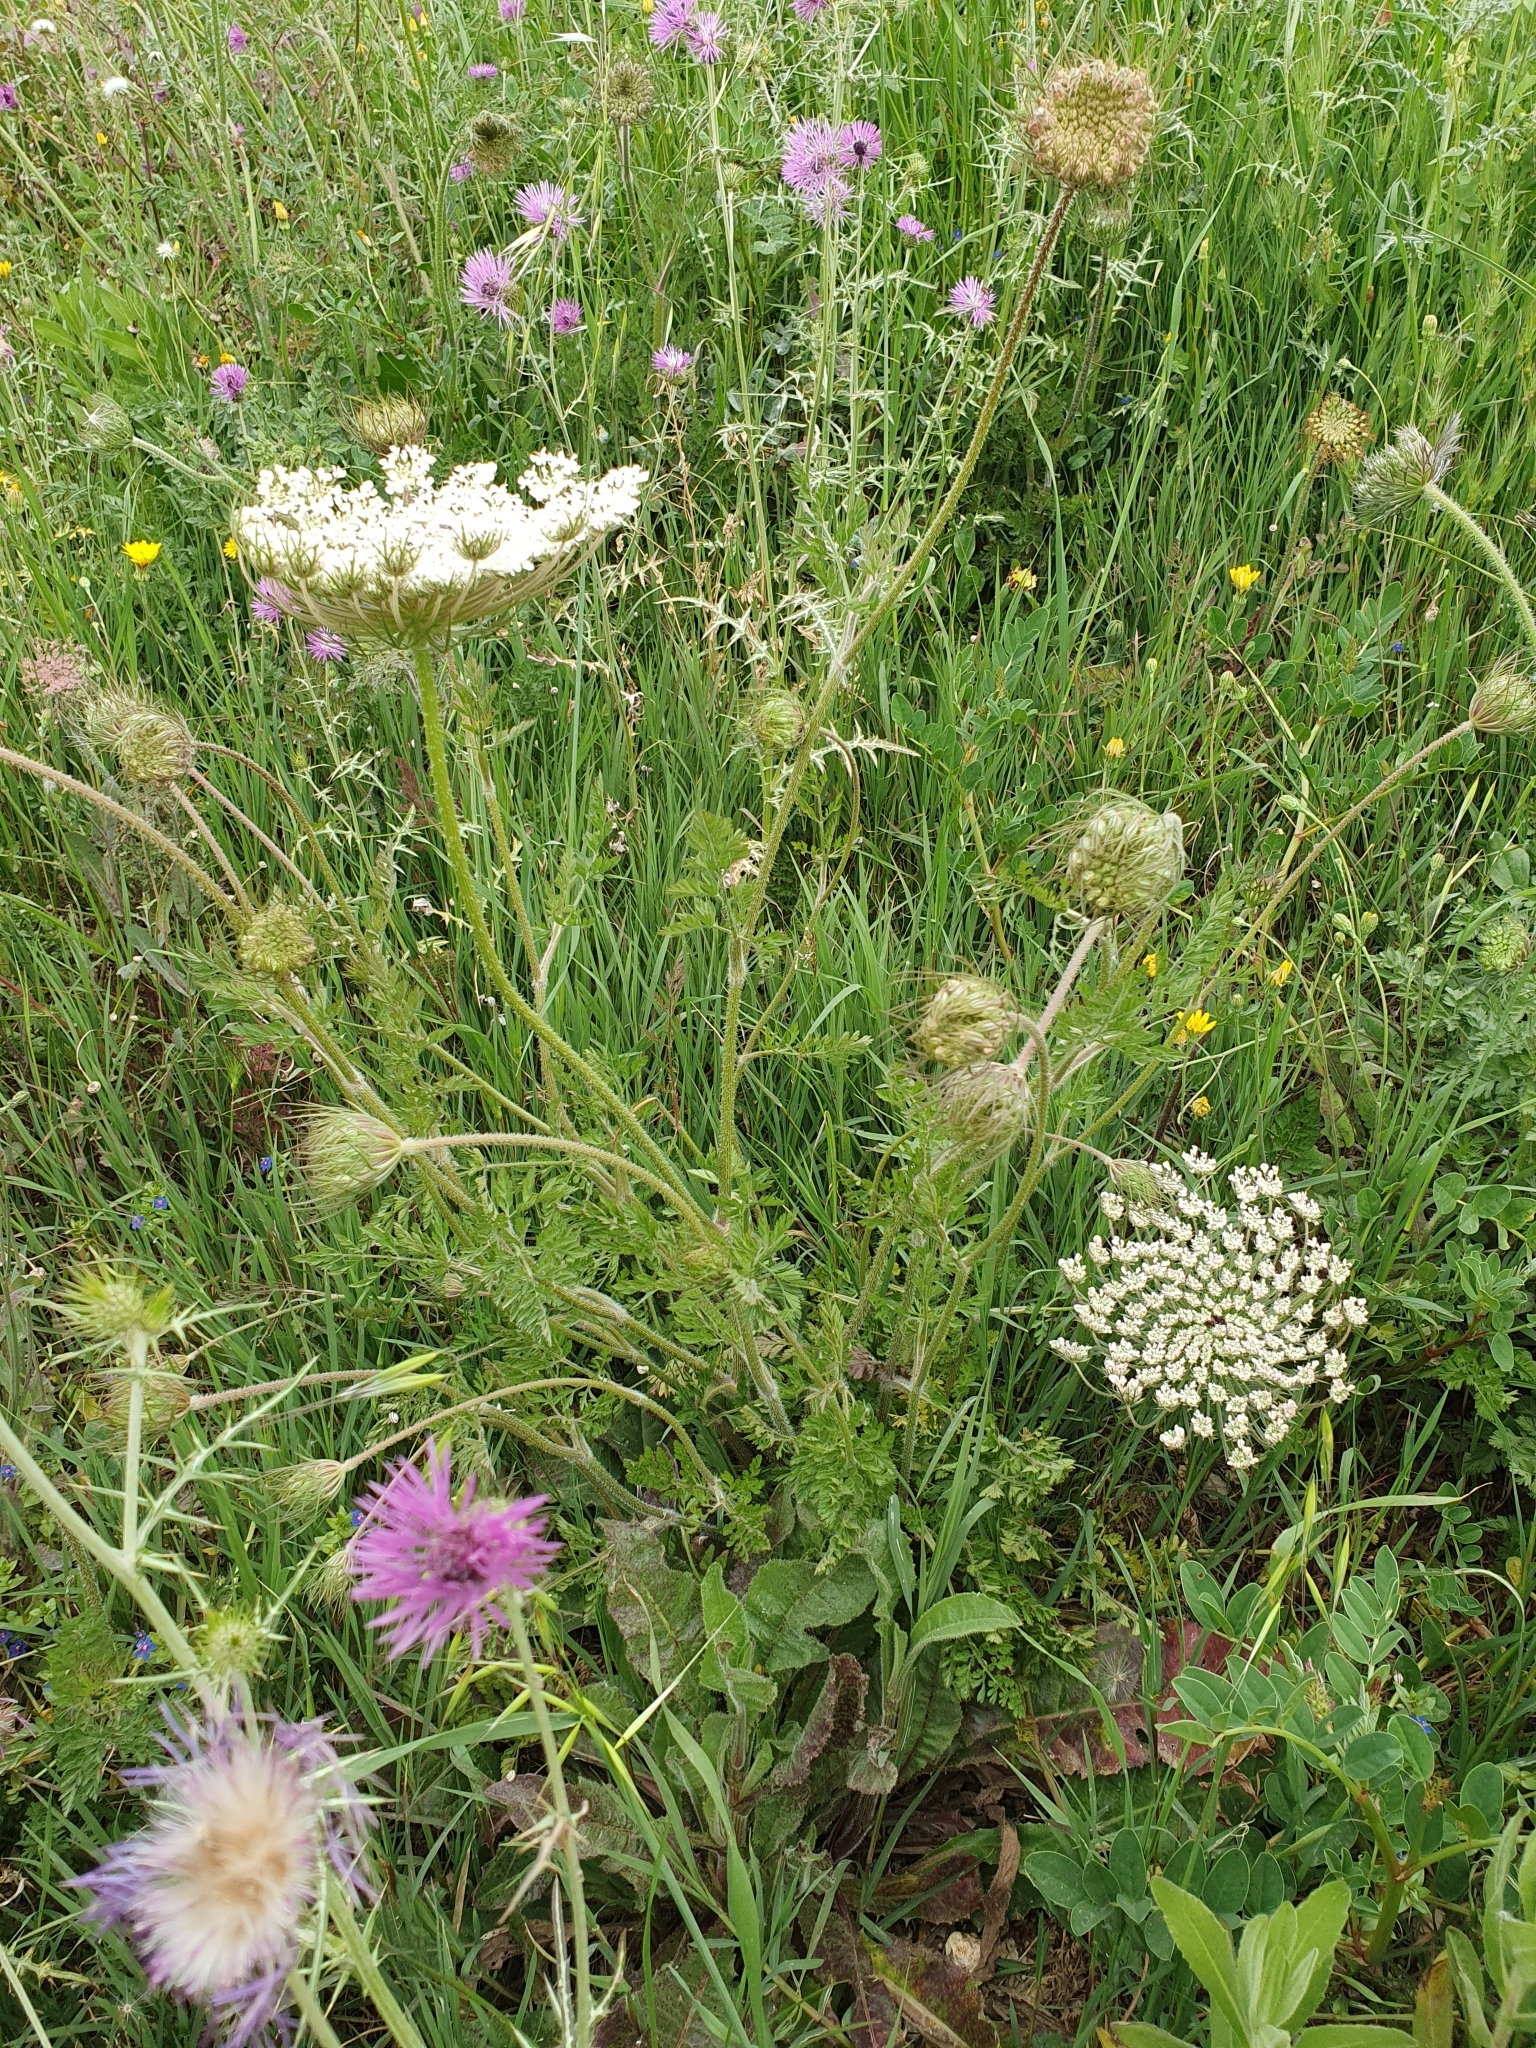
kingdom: Plantae
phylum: Tracheophyta
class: Magnoliopsida
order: Apiales
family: Apiaceae
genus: Daucus
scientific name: Daucus carota
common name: Wild carrot
